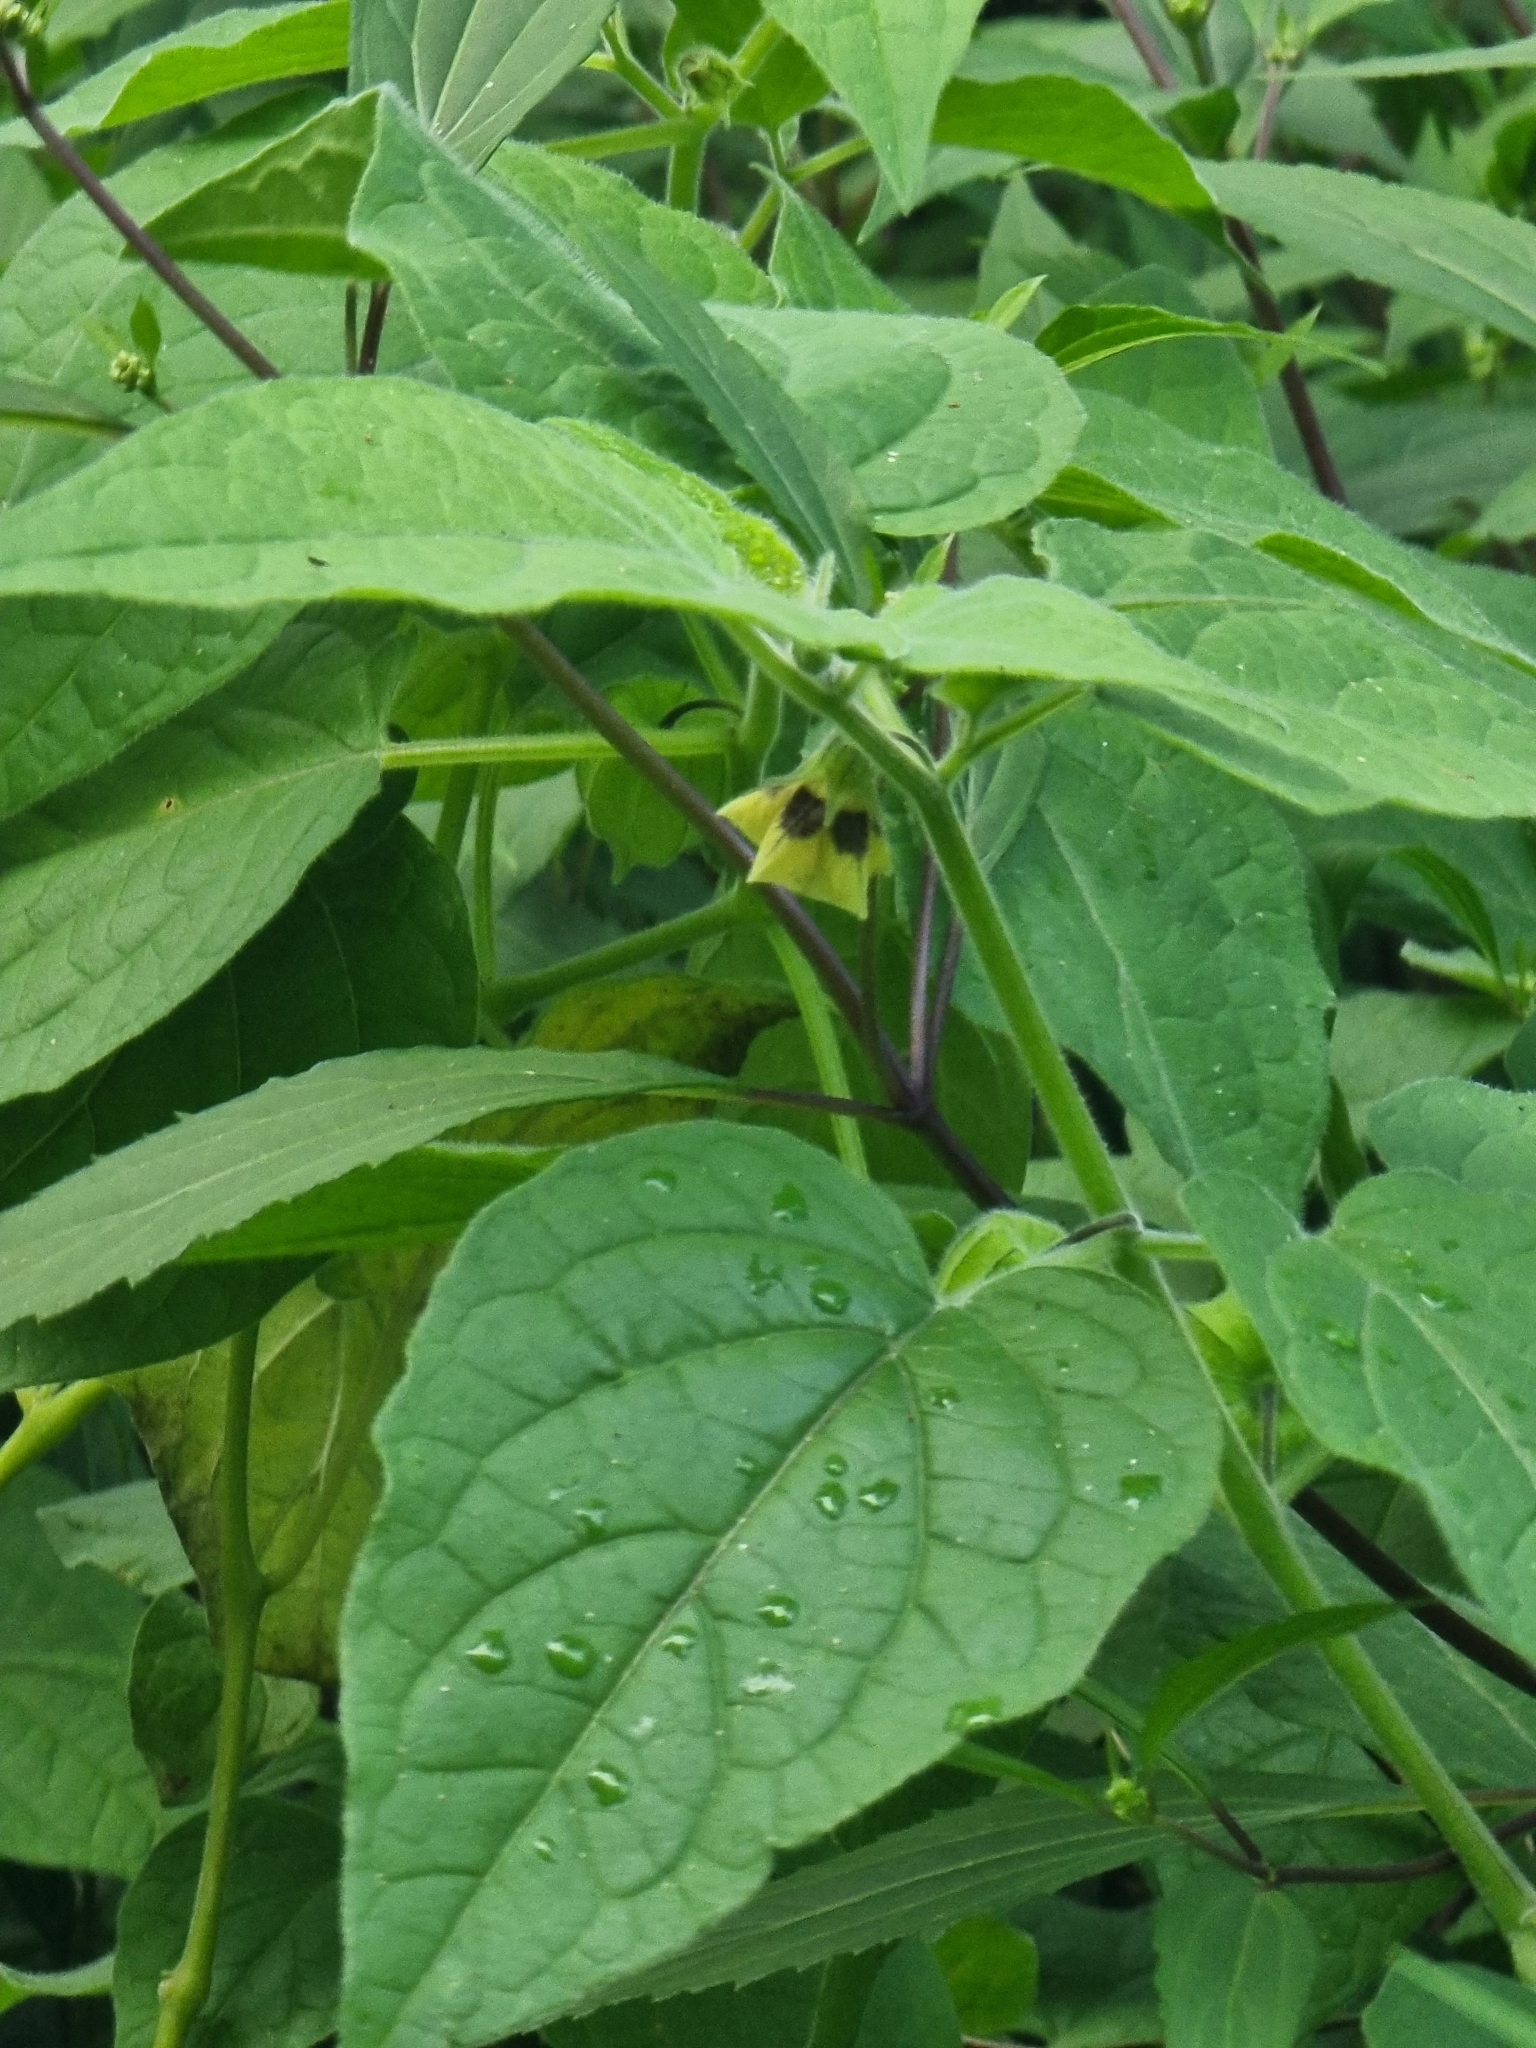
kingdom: Plantae
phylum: Tracheophyta
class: Magnoliopsida
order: Solanales
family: Solanaceae
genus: Physalis
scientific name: Physalis peruviana
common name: Cape-gooseberry
